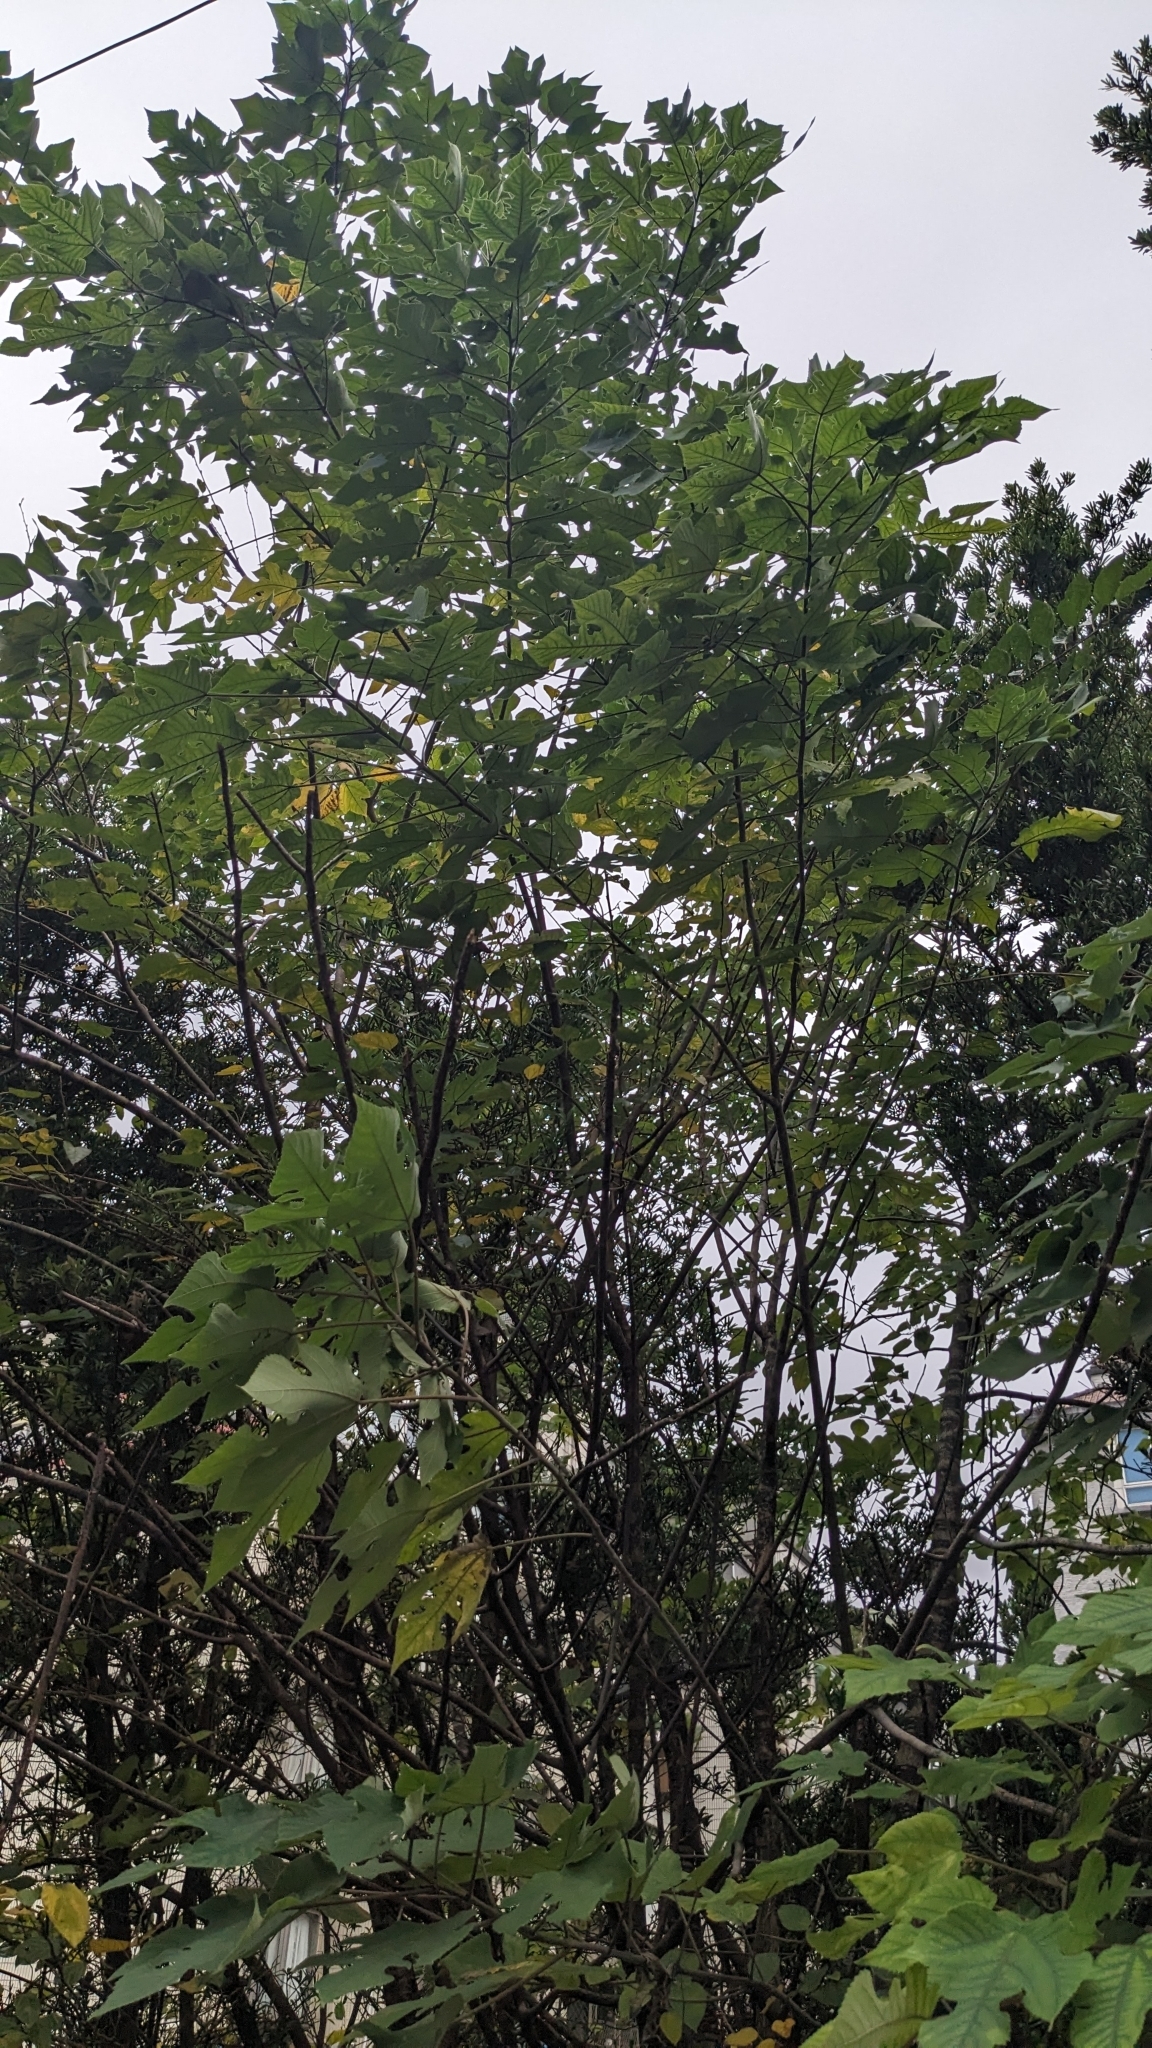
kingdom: Plantae
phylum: Tracheophyta
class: Magnoliopsida
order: Rosales
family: Moraceae
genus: Broussonetia
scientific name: Broussonetia papyrifera
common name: Paper mulberry
